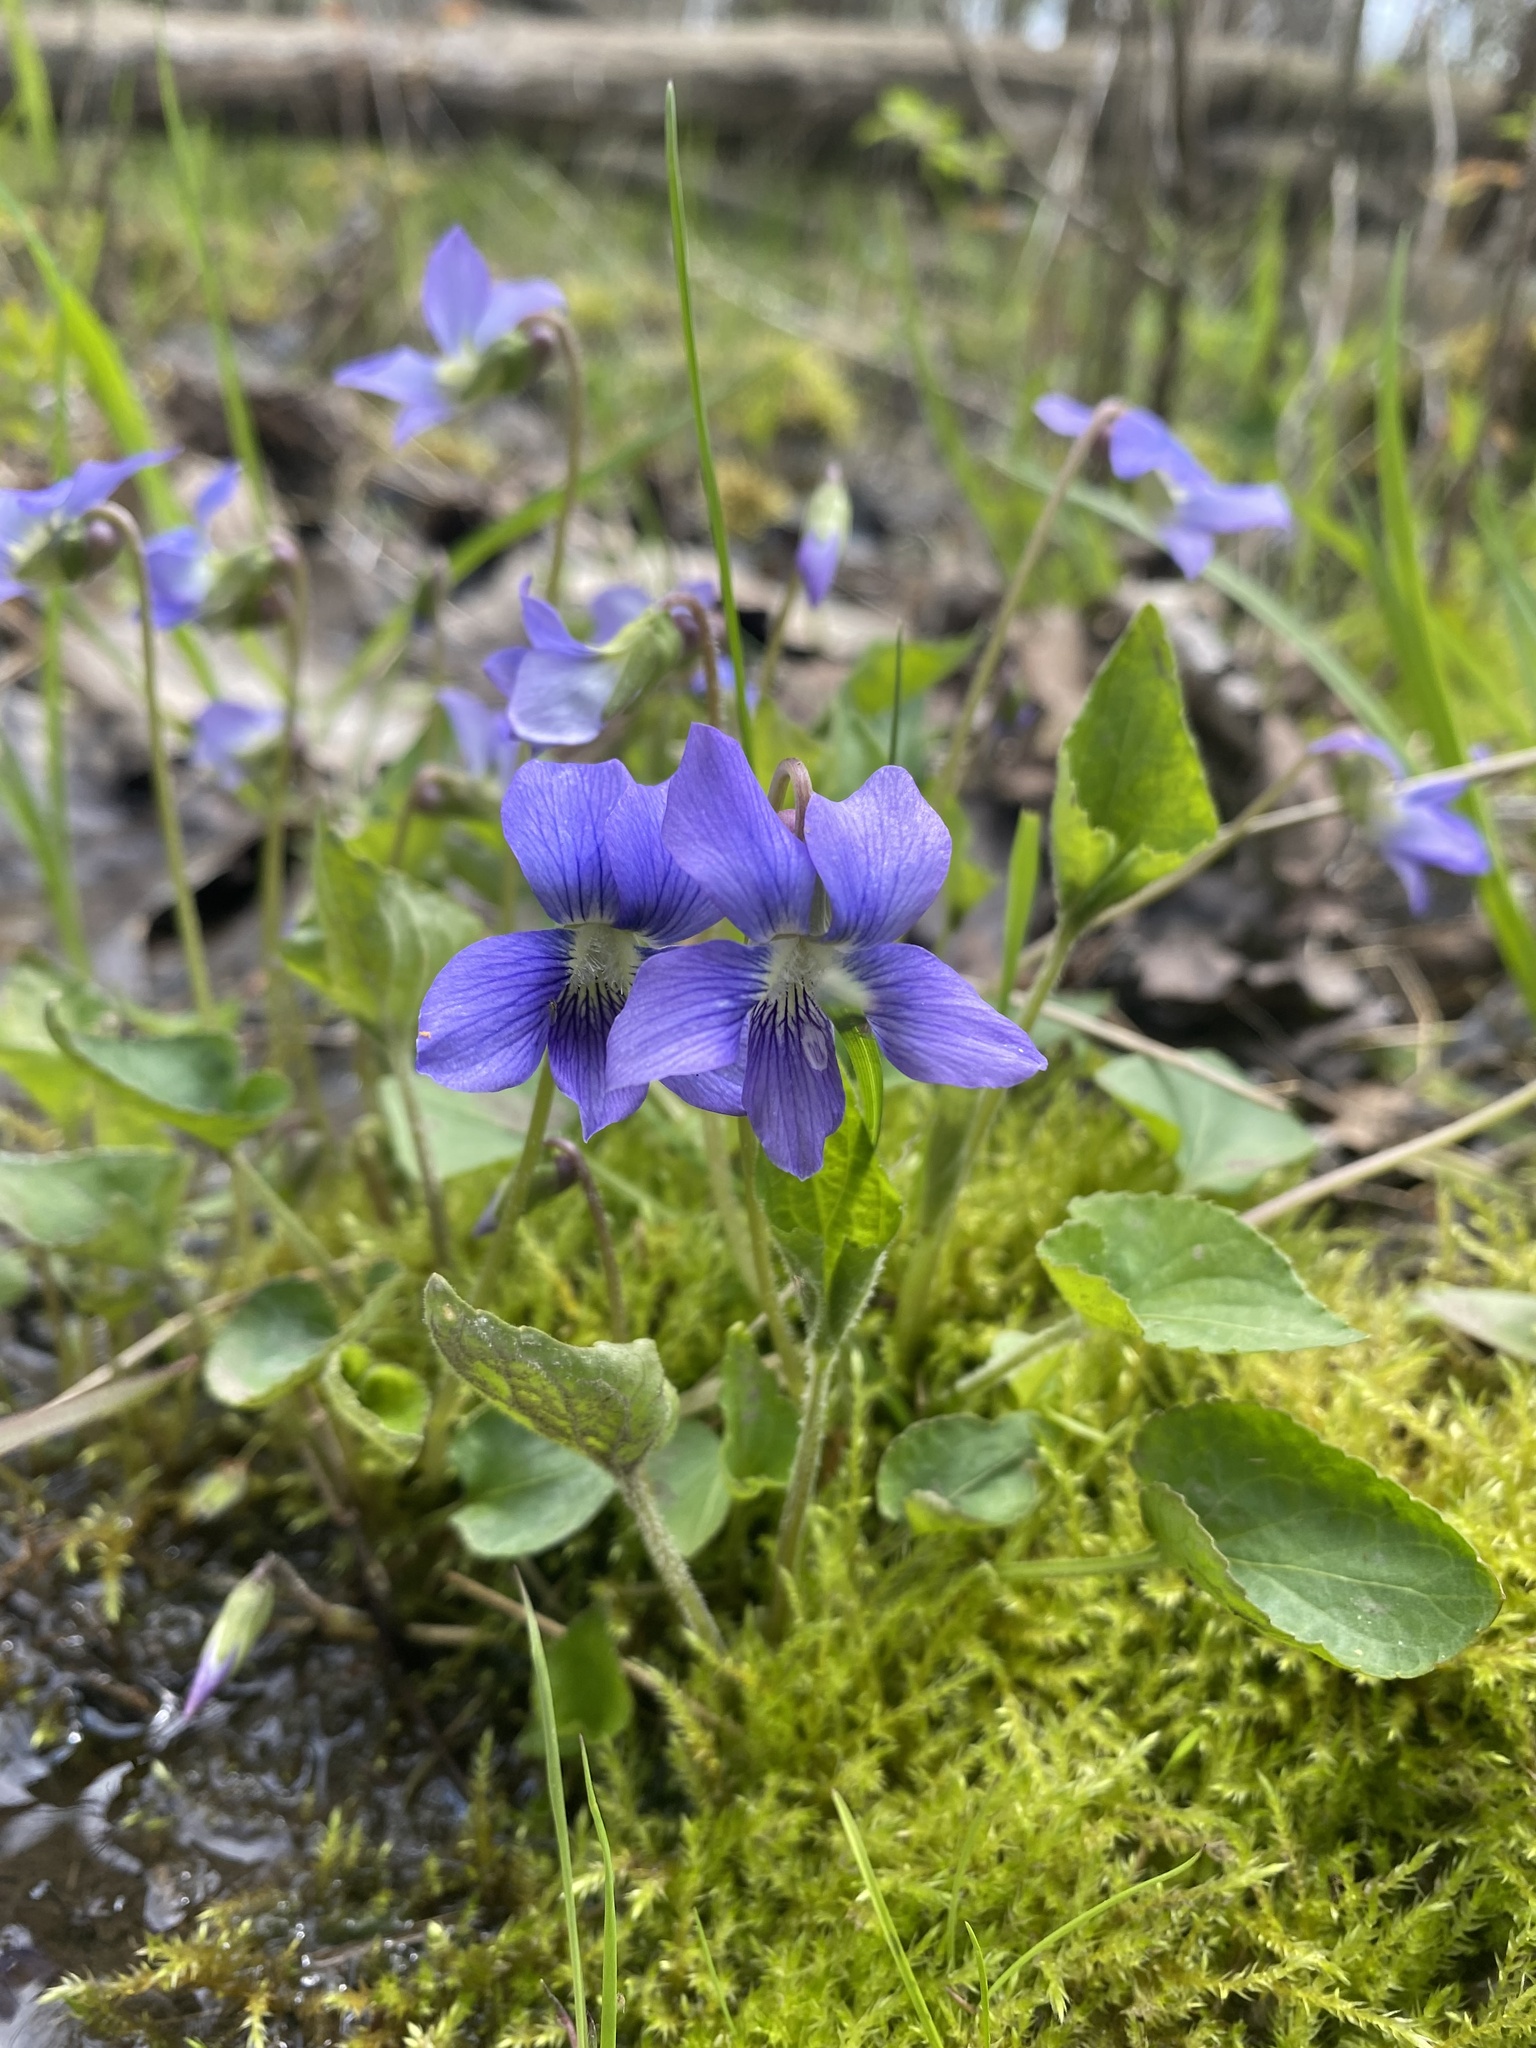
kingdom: Plantae
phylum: Tracheophyta
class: Magnoliopsida
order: Malpighiales
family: Violaceae
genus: Viola
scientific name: Viola sororia
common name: Dooryard violet
